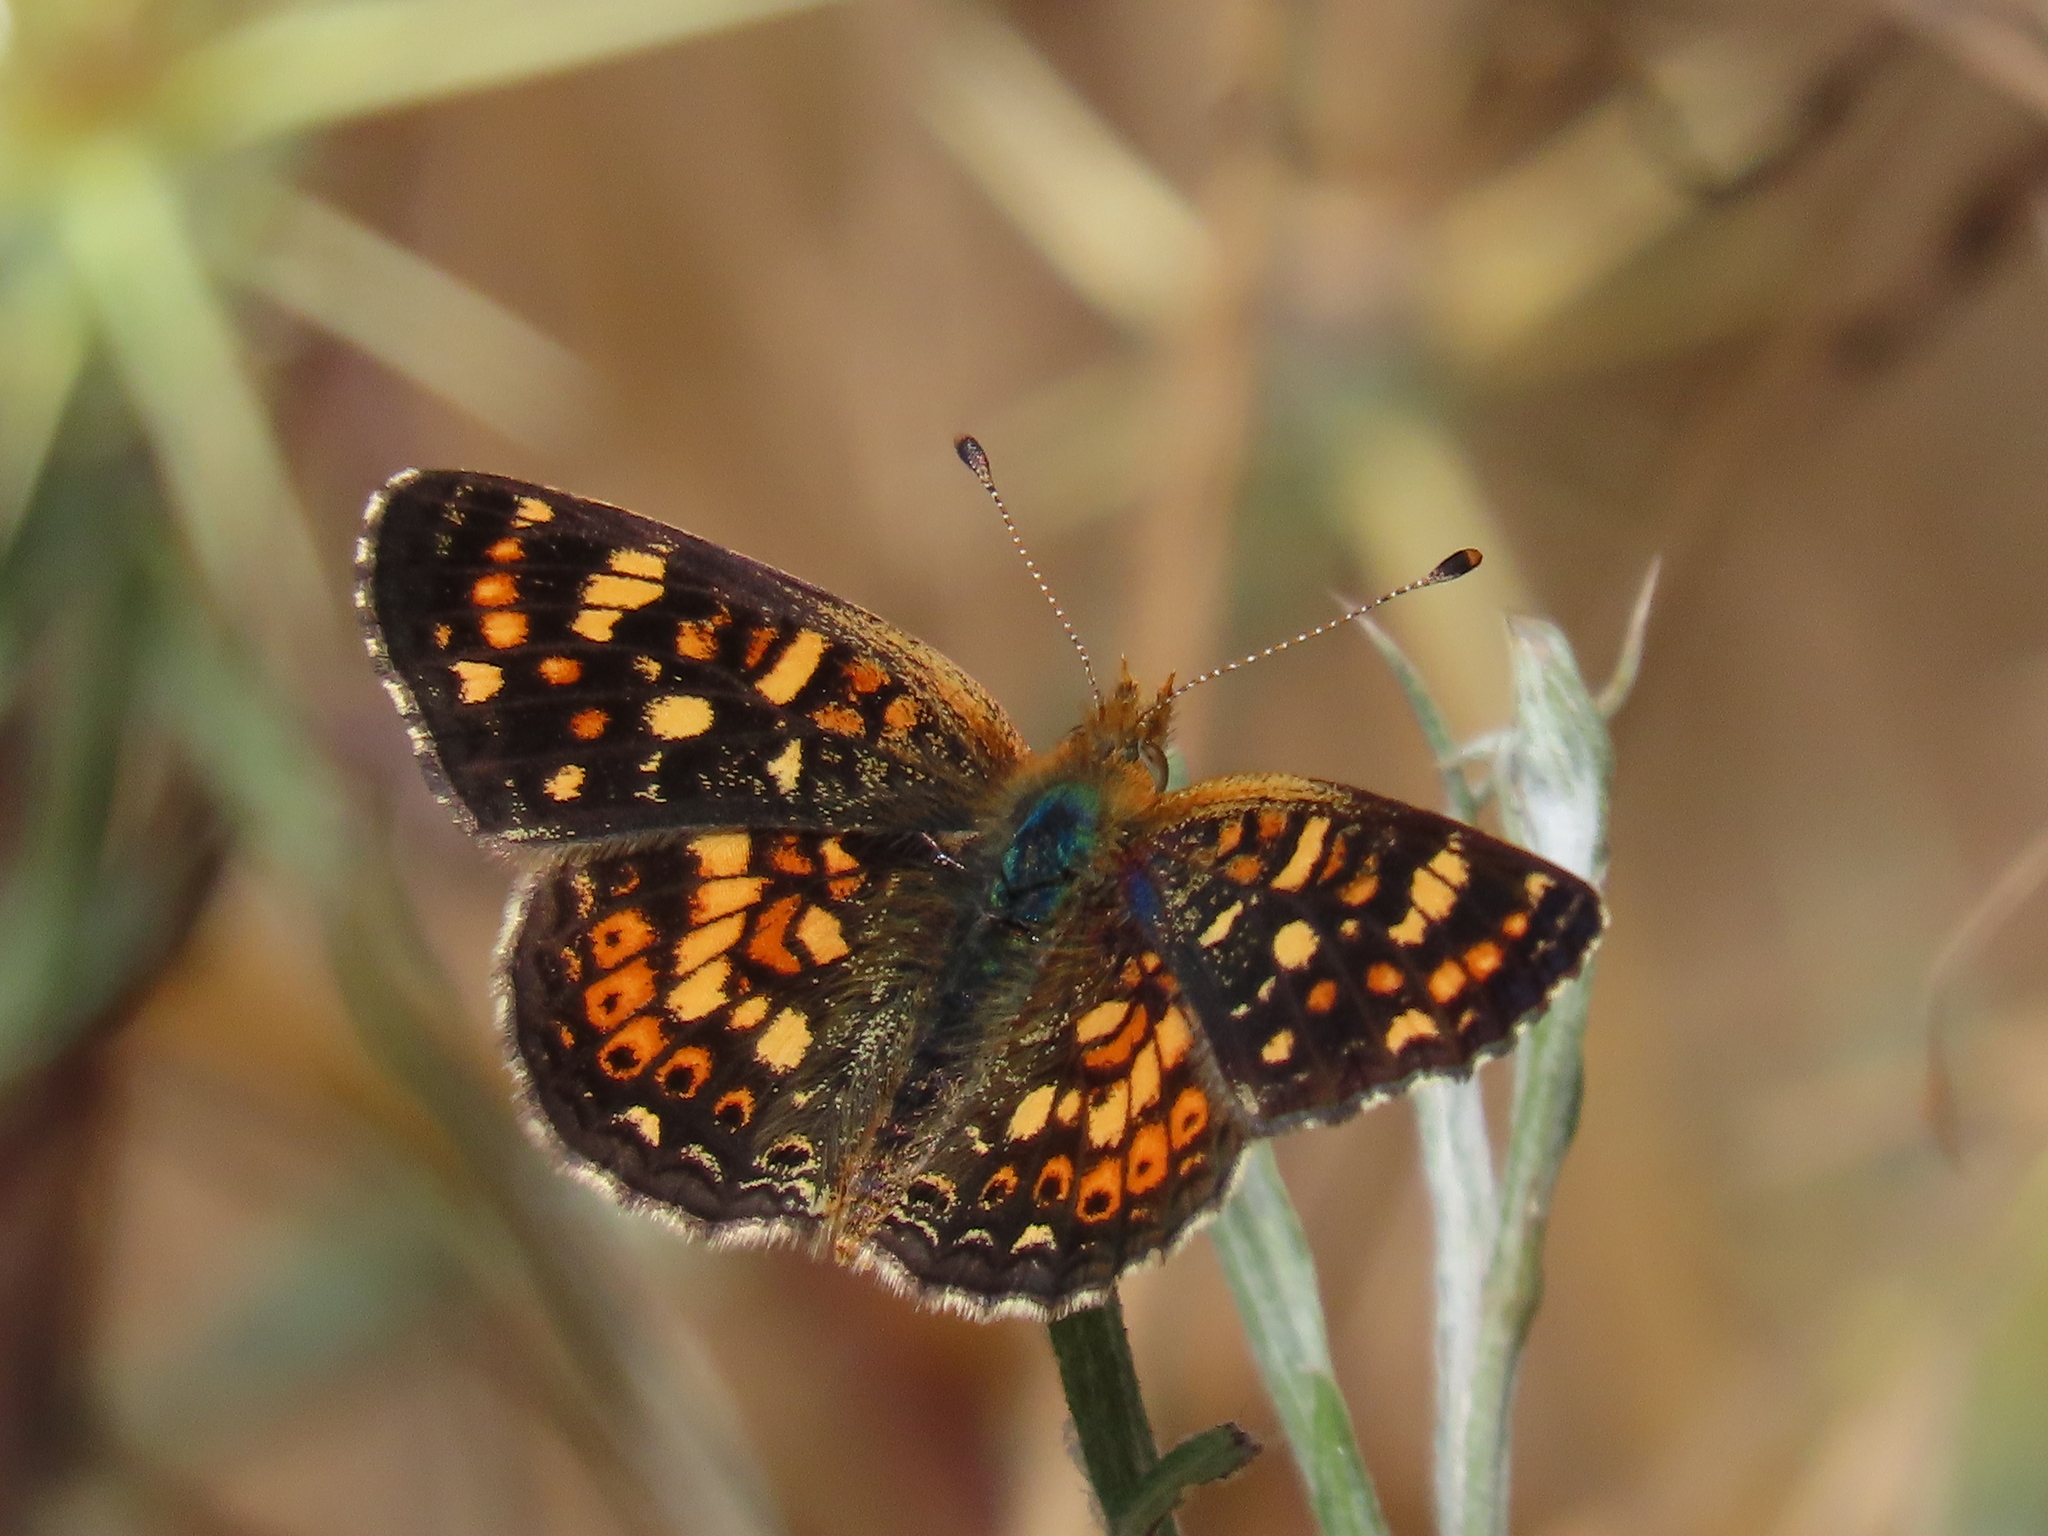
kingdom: Animalia
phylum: Arthropoda
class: Insecta
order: Lepidoptera
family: Nymphalidae
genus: Phyciodes
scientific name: Phyciodes tharos
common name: Pearl crescent
